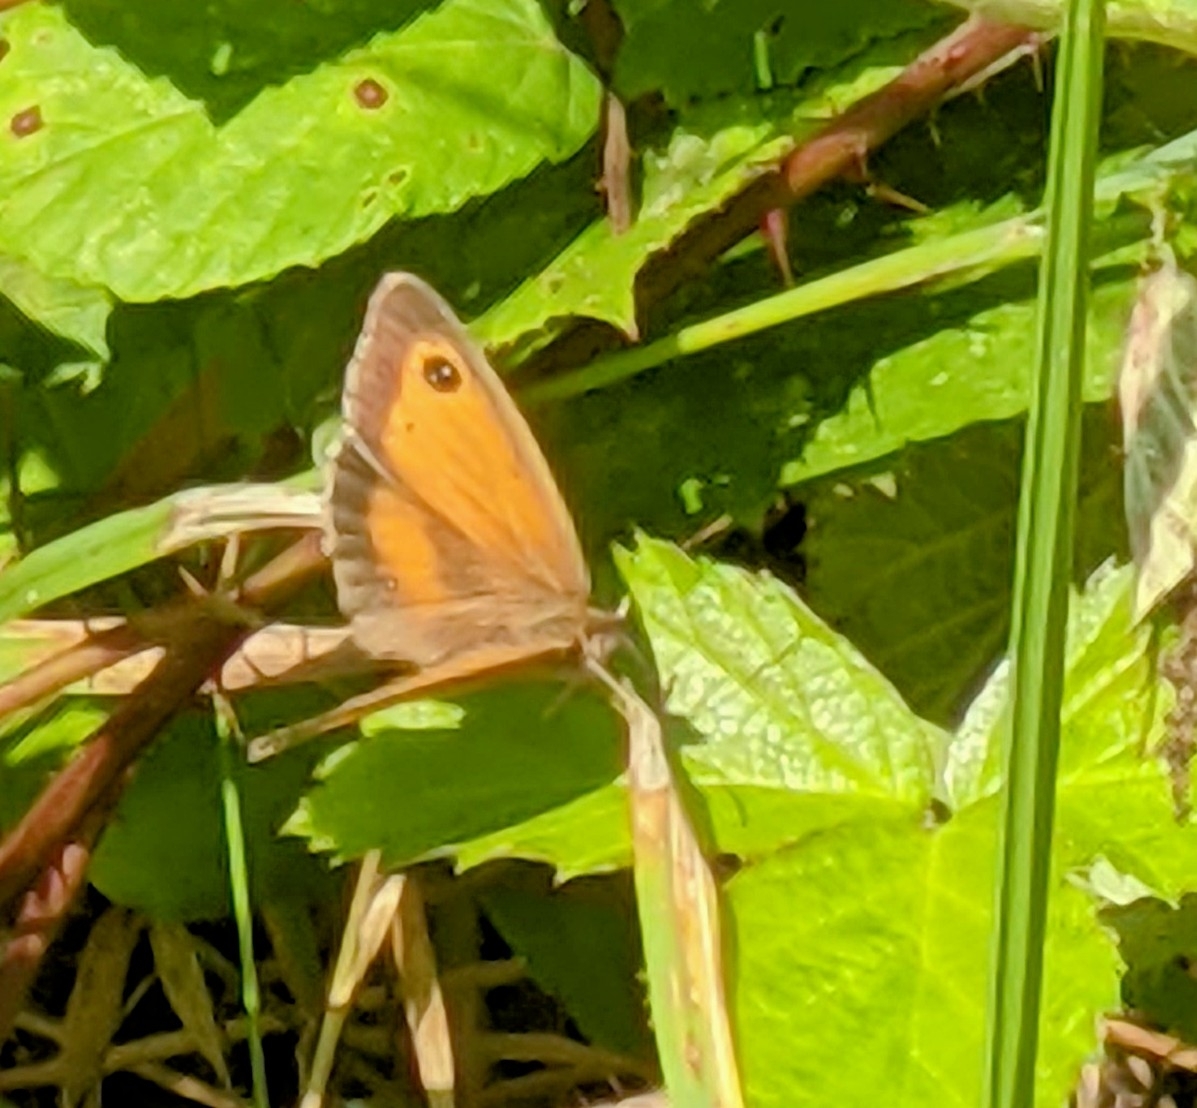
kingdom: Animalia
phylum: Arthropoda
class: Insecta
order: Lepidoptera
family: Nymphalidae
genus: Pyronia
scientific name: Pyronia tithonus
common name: Gatekeeper
